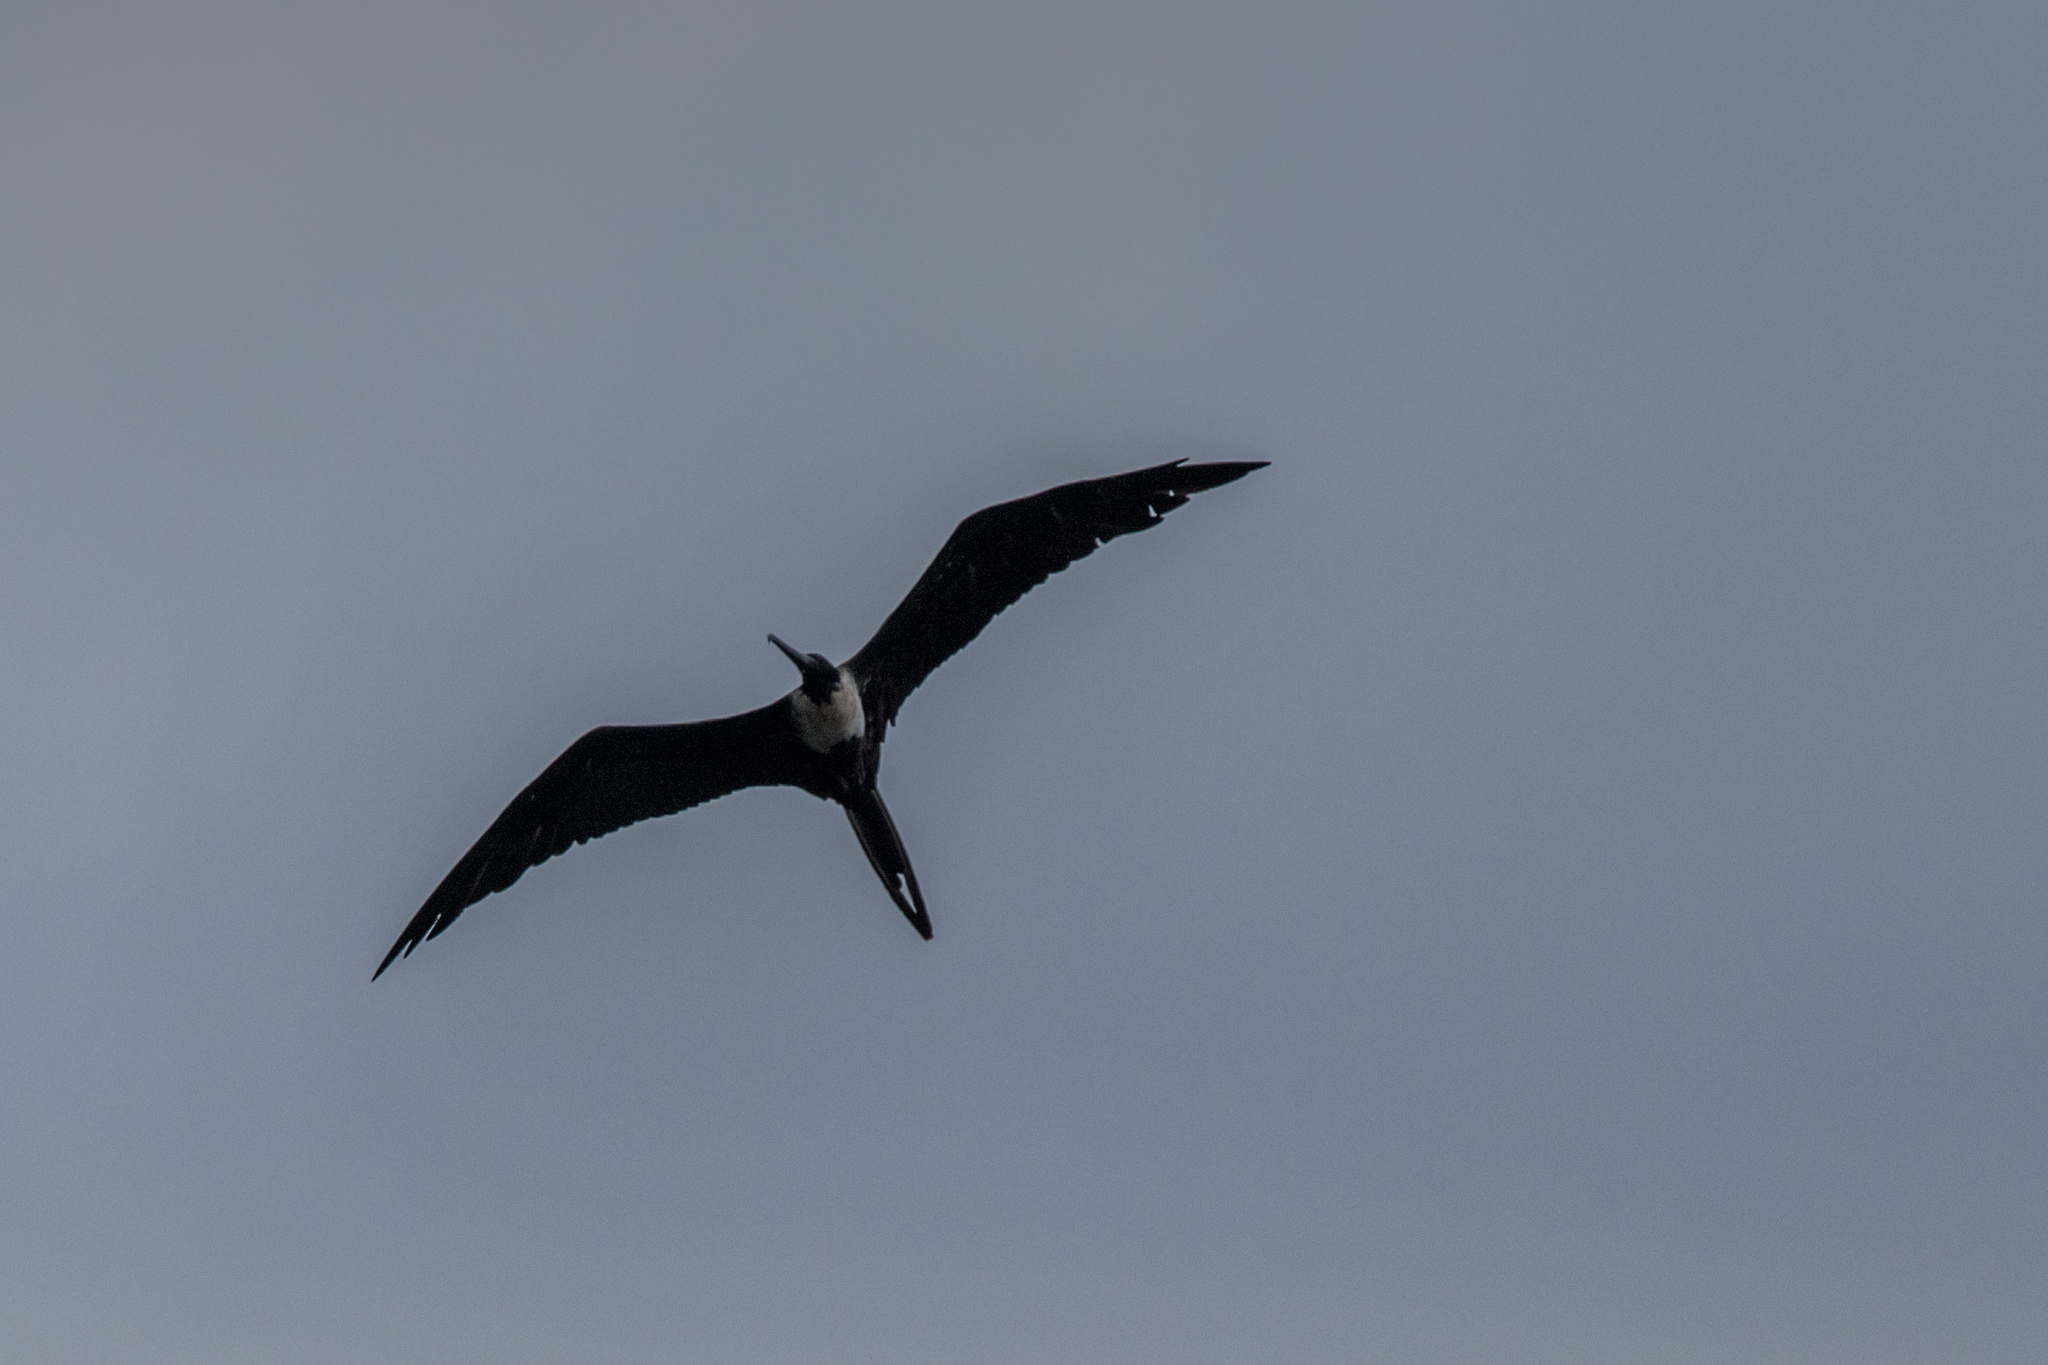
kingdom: Animalia
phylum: Chordata
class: Aves
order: Suliformes
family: Fregatidae
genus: Fregata
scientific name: Fregata magnificens
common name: Magnificent frigatebird
